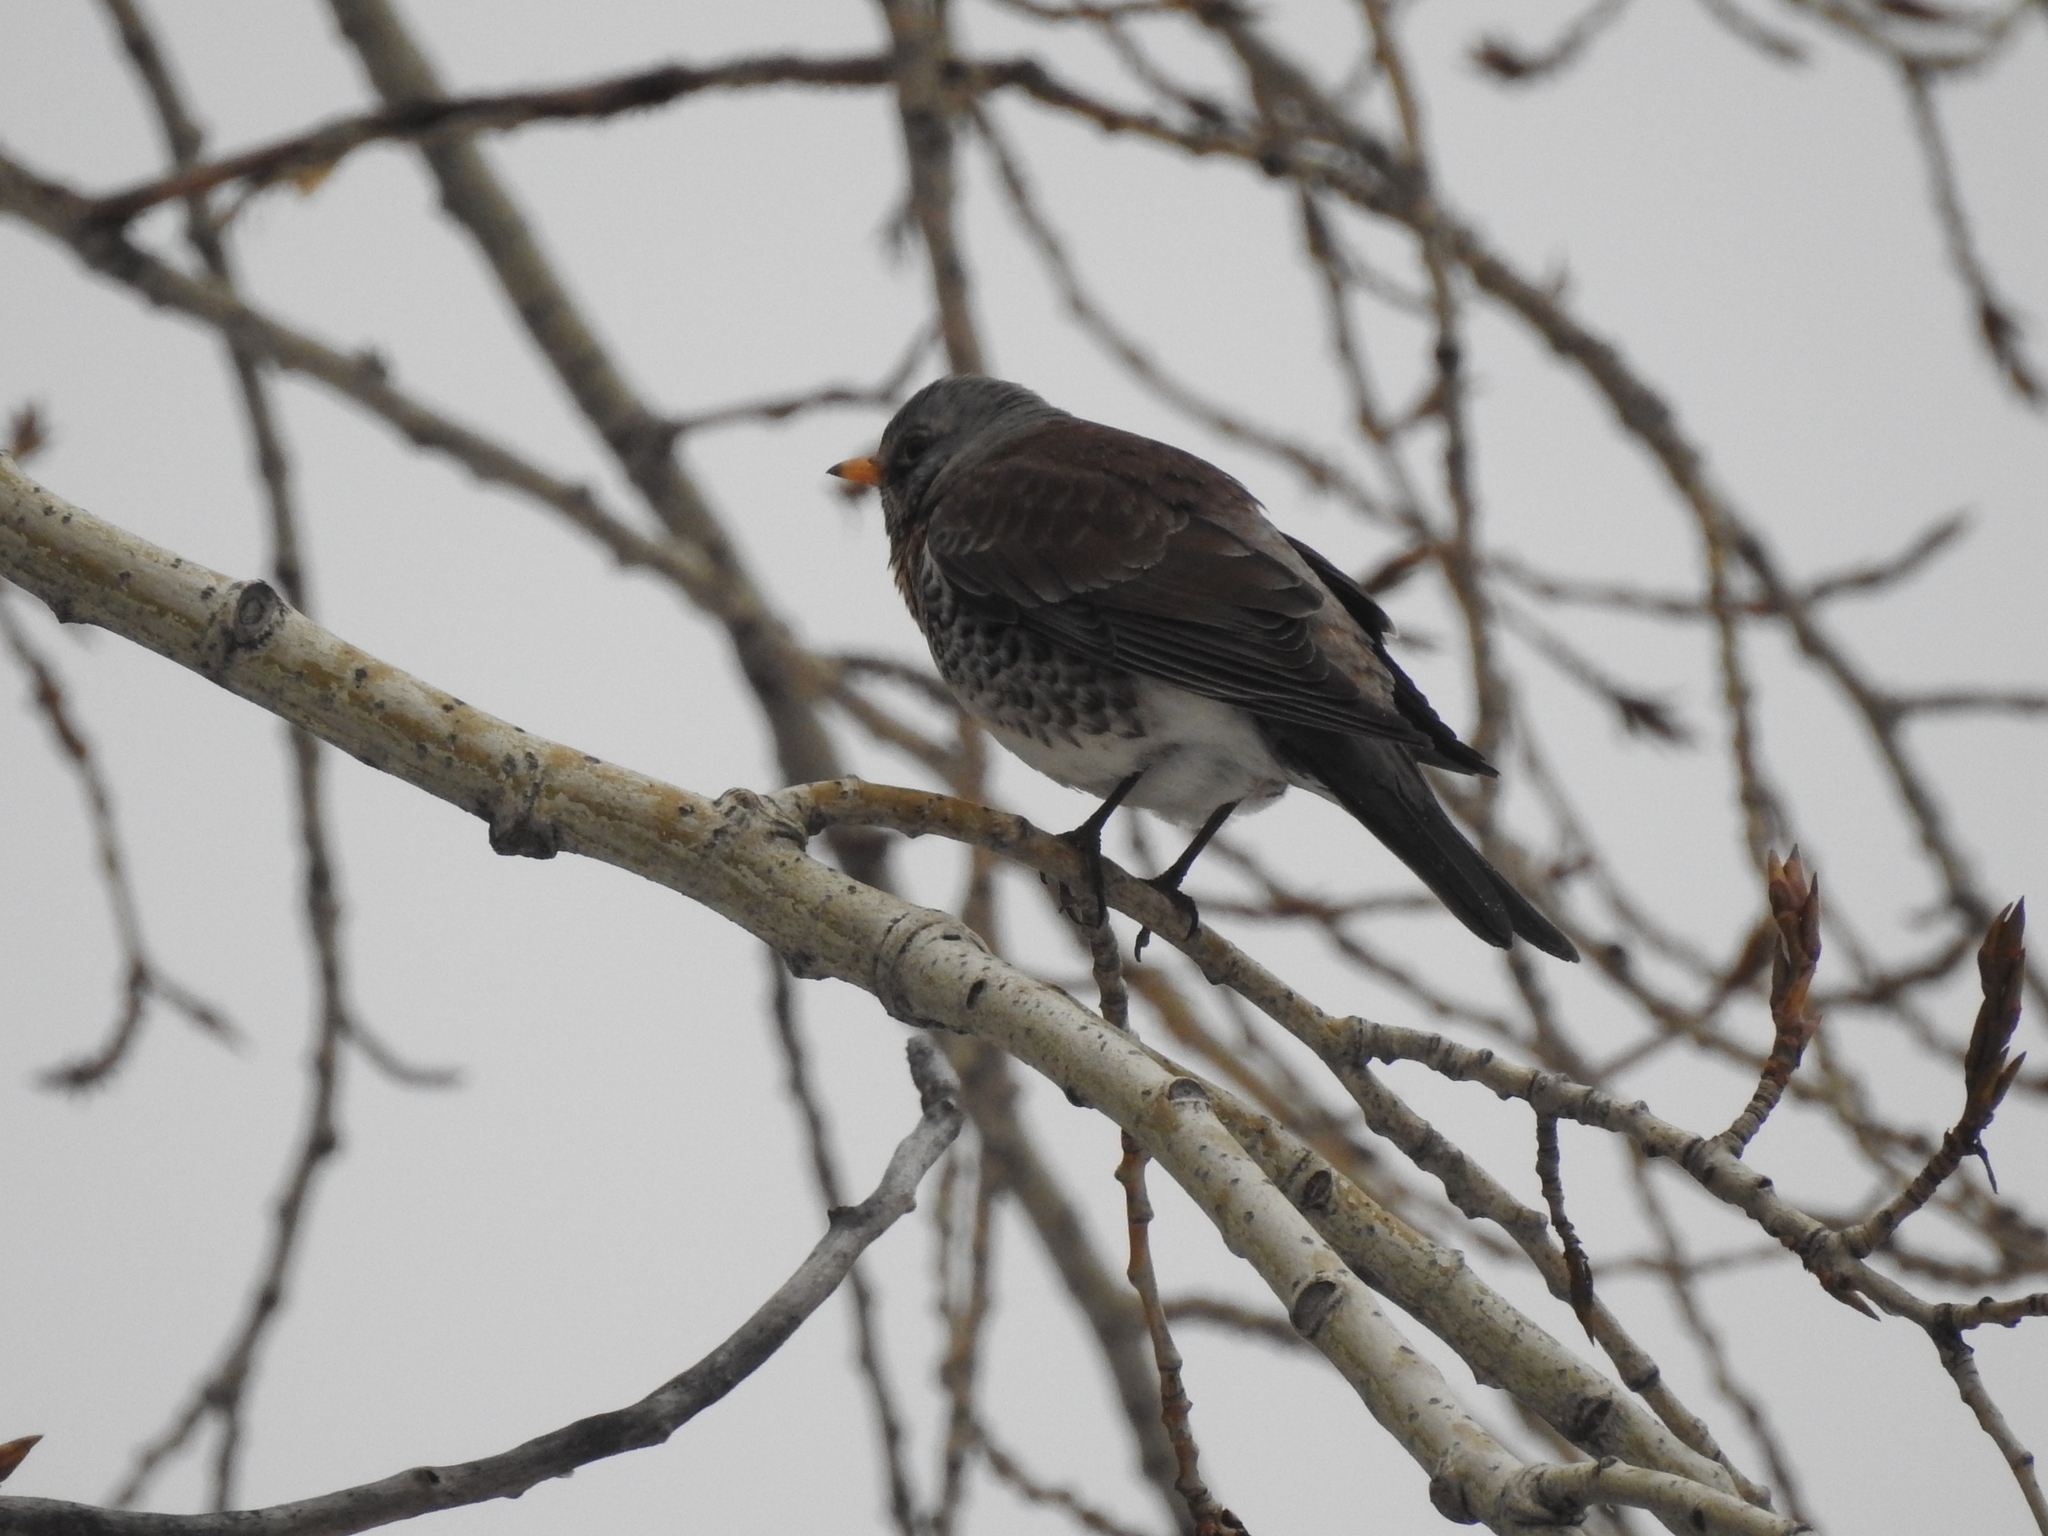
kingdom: Animalia
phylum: Chordata
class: Aves
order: Passeriformes
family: Turdidae
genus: Turdus
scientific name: Turdus pilaris
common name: Fieldfare
